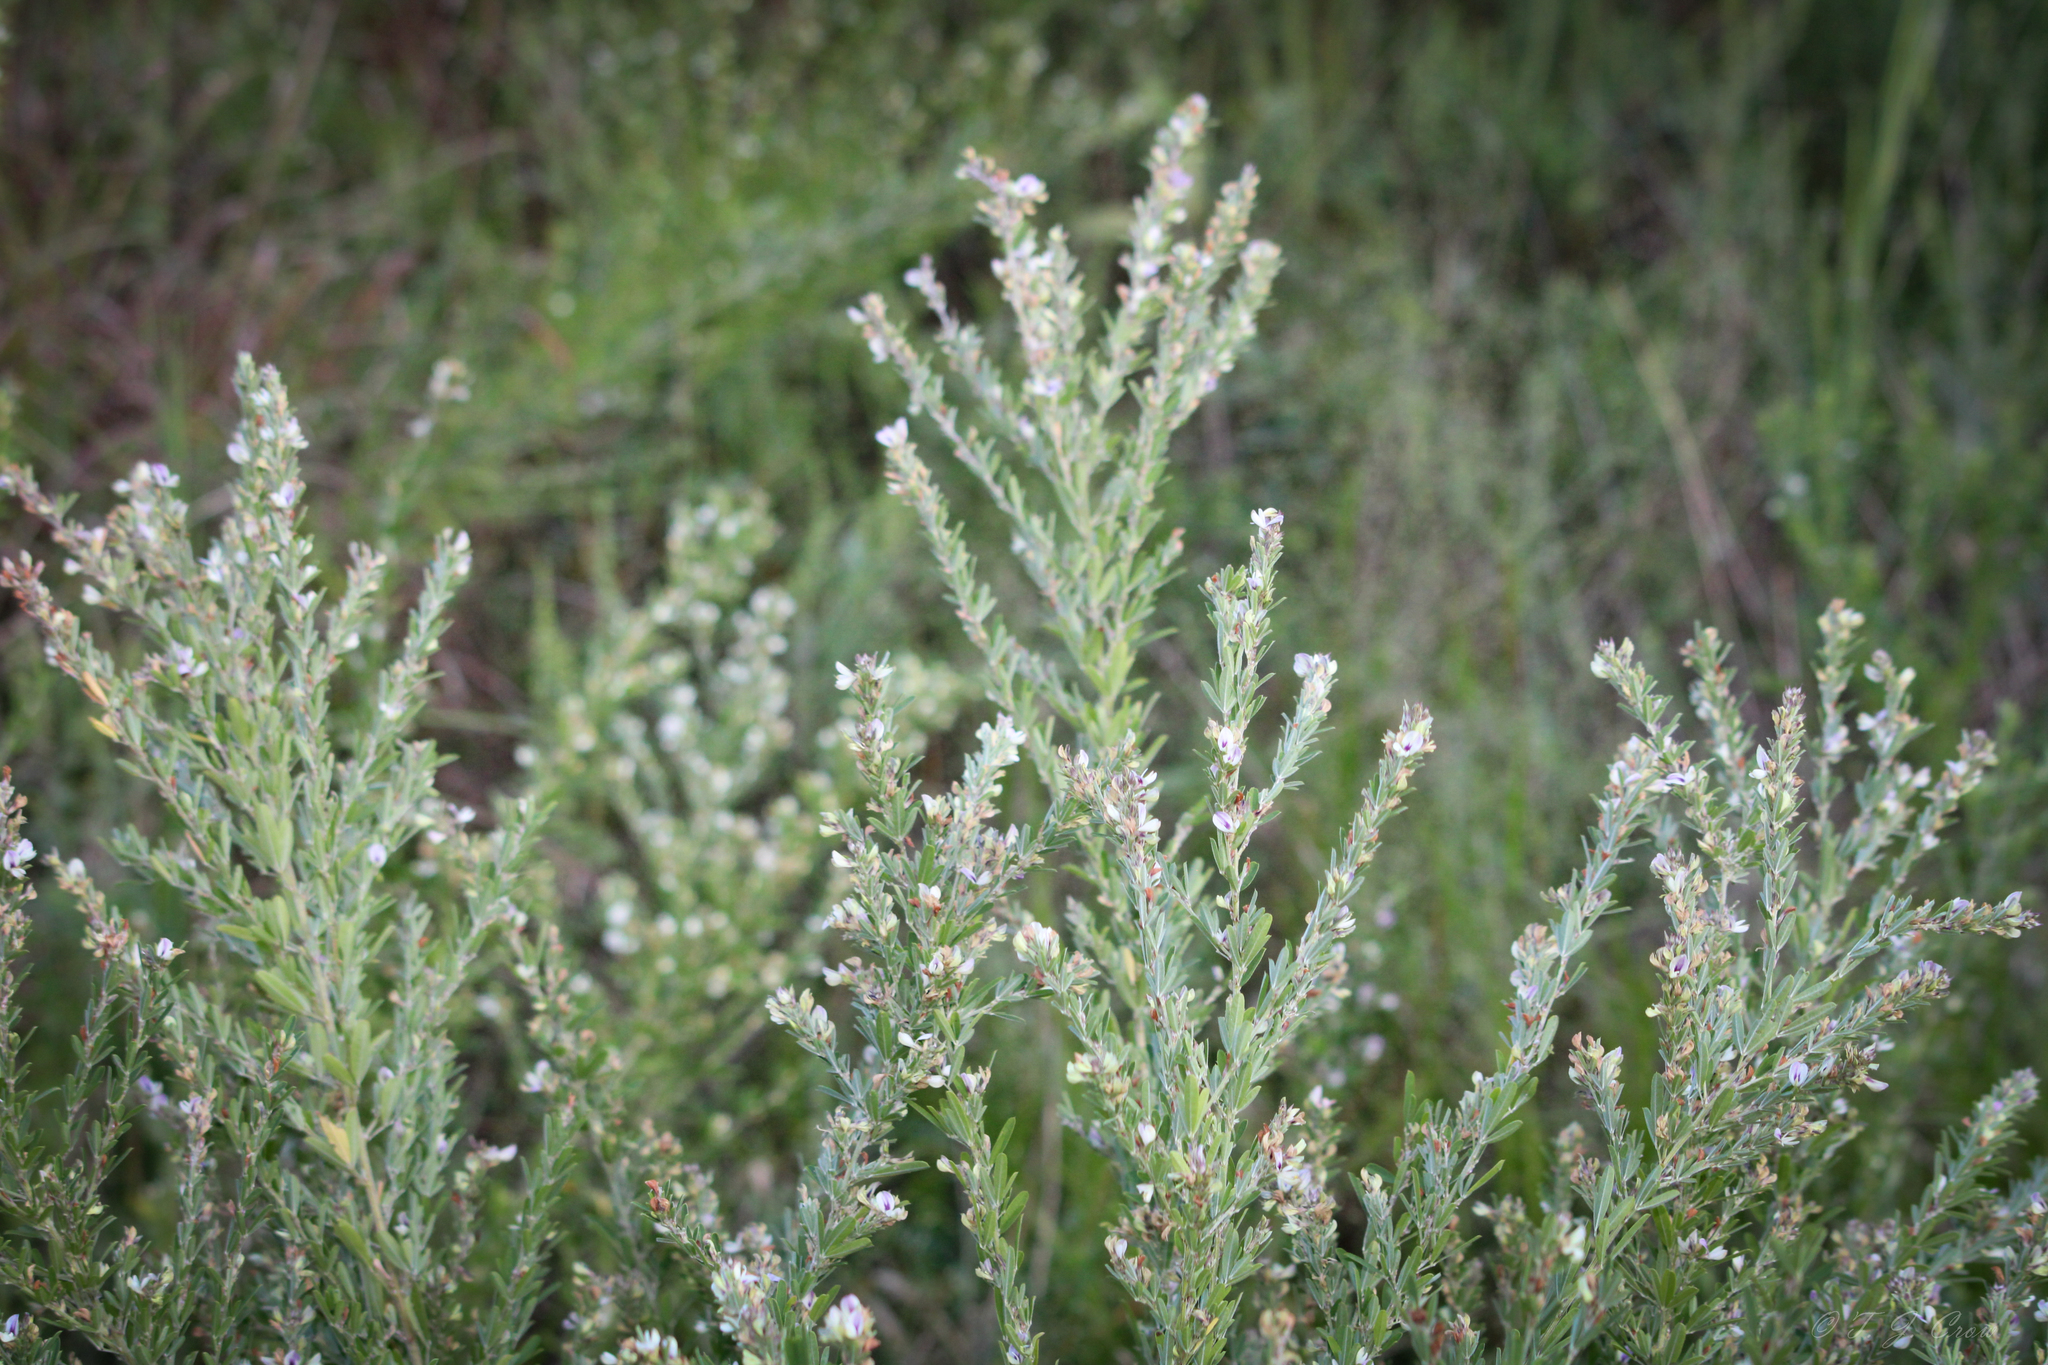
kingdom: Plantae
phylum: Tracheophyta
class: Magnoliopsida
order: Fabales
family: Fabaceae
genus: Lespedeza
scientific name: Lespedeza cuneata
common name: Chinese bush-clover
